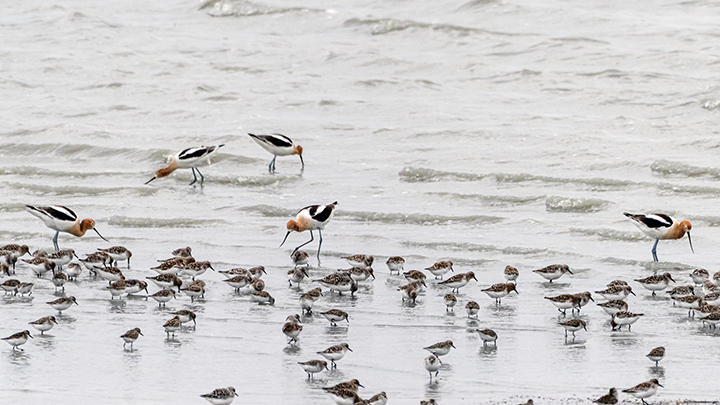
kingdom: Animalia
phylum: Chordata
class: Aves
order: Charadriiformes
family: Recurvirostridae
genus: Recurvirostra
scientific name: Recurvirostra americana
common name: American avocet
